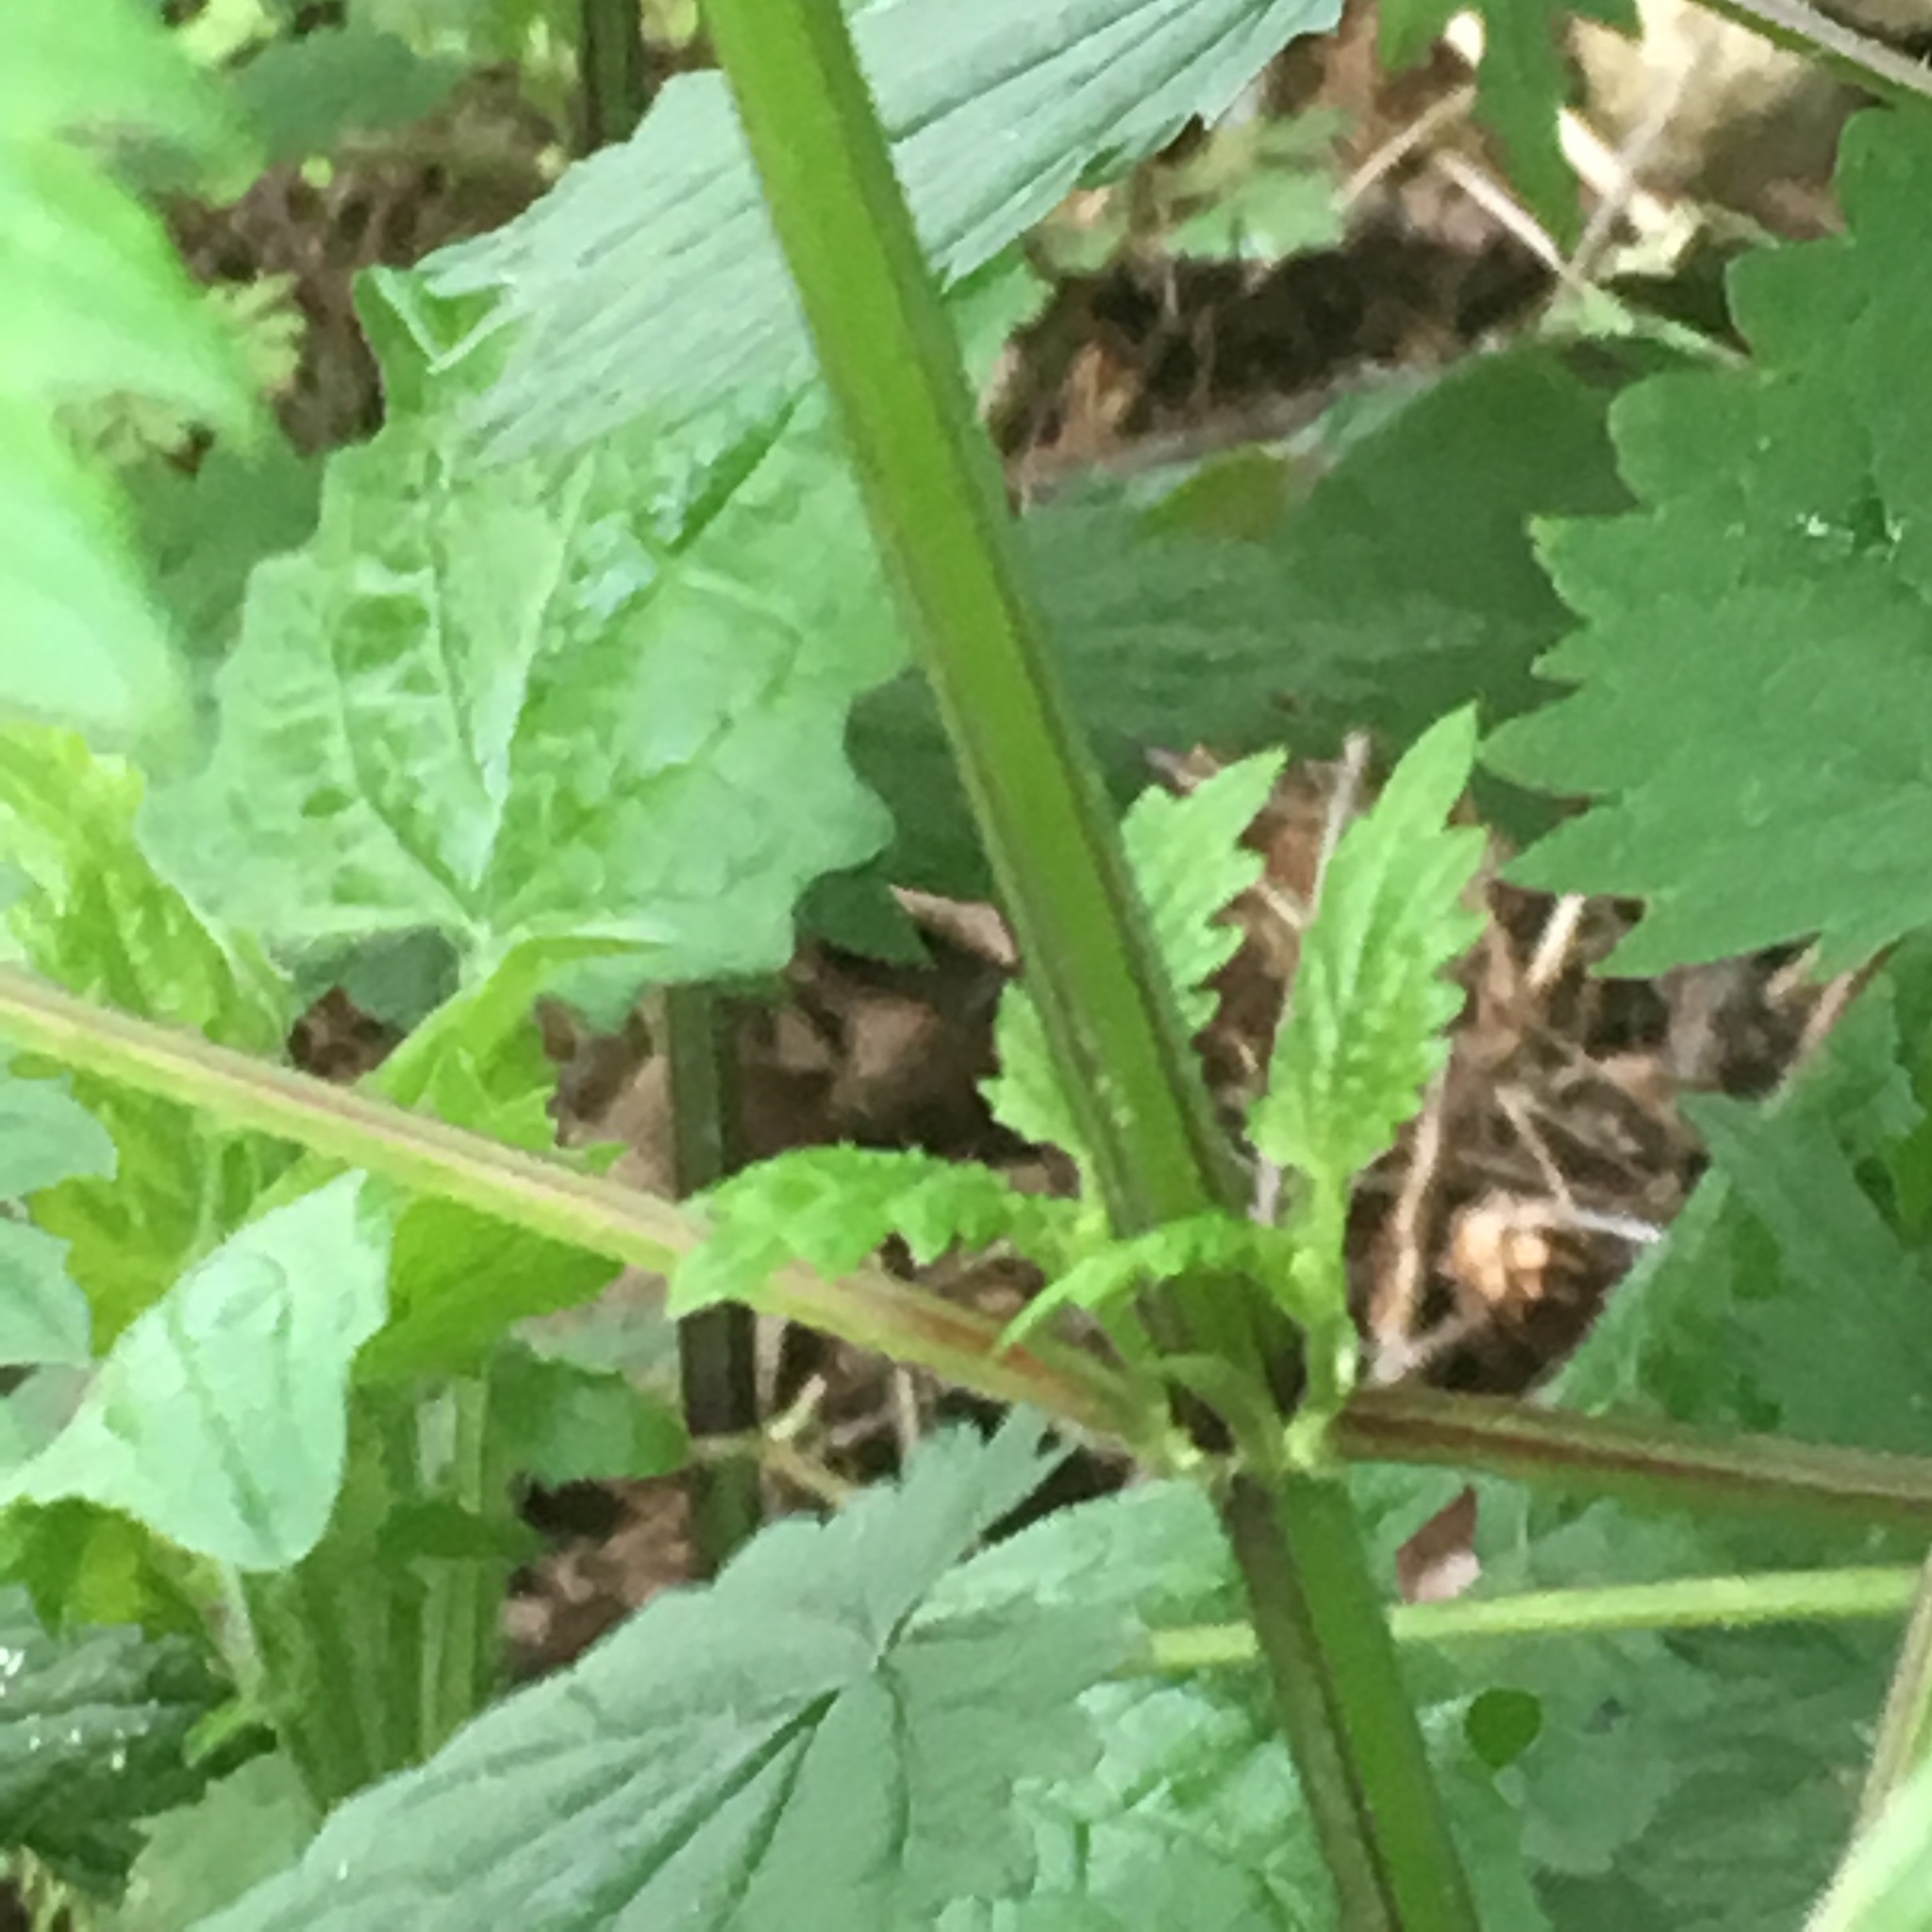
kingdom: Plantae
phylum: Tracheophyta
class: Magnoliopsida
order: Rosales
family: Urticaceae
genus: Urtica
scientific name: Urtica dioica
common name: Common nettle
